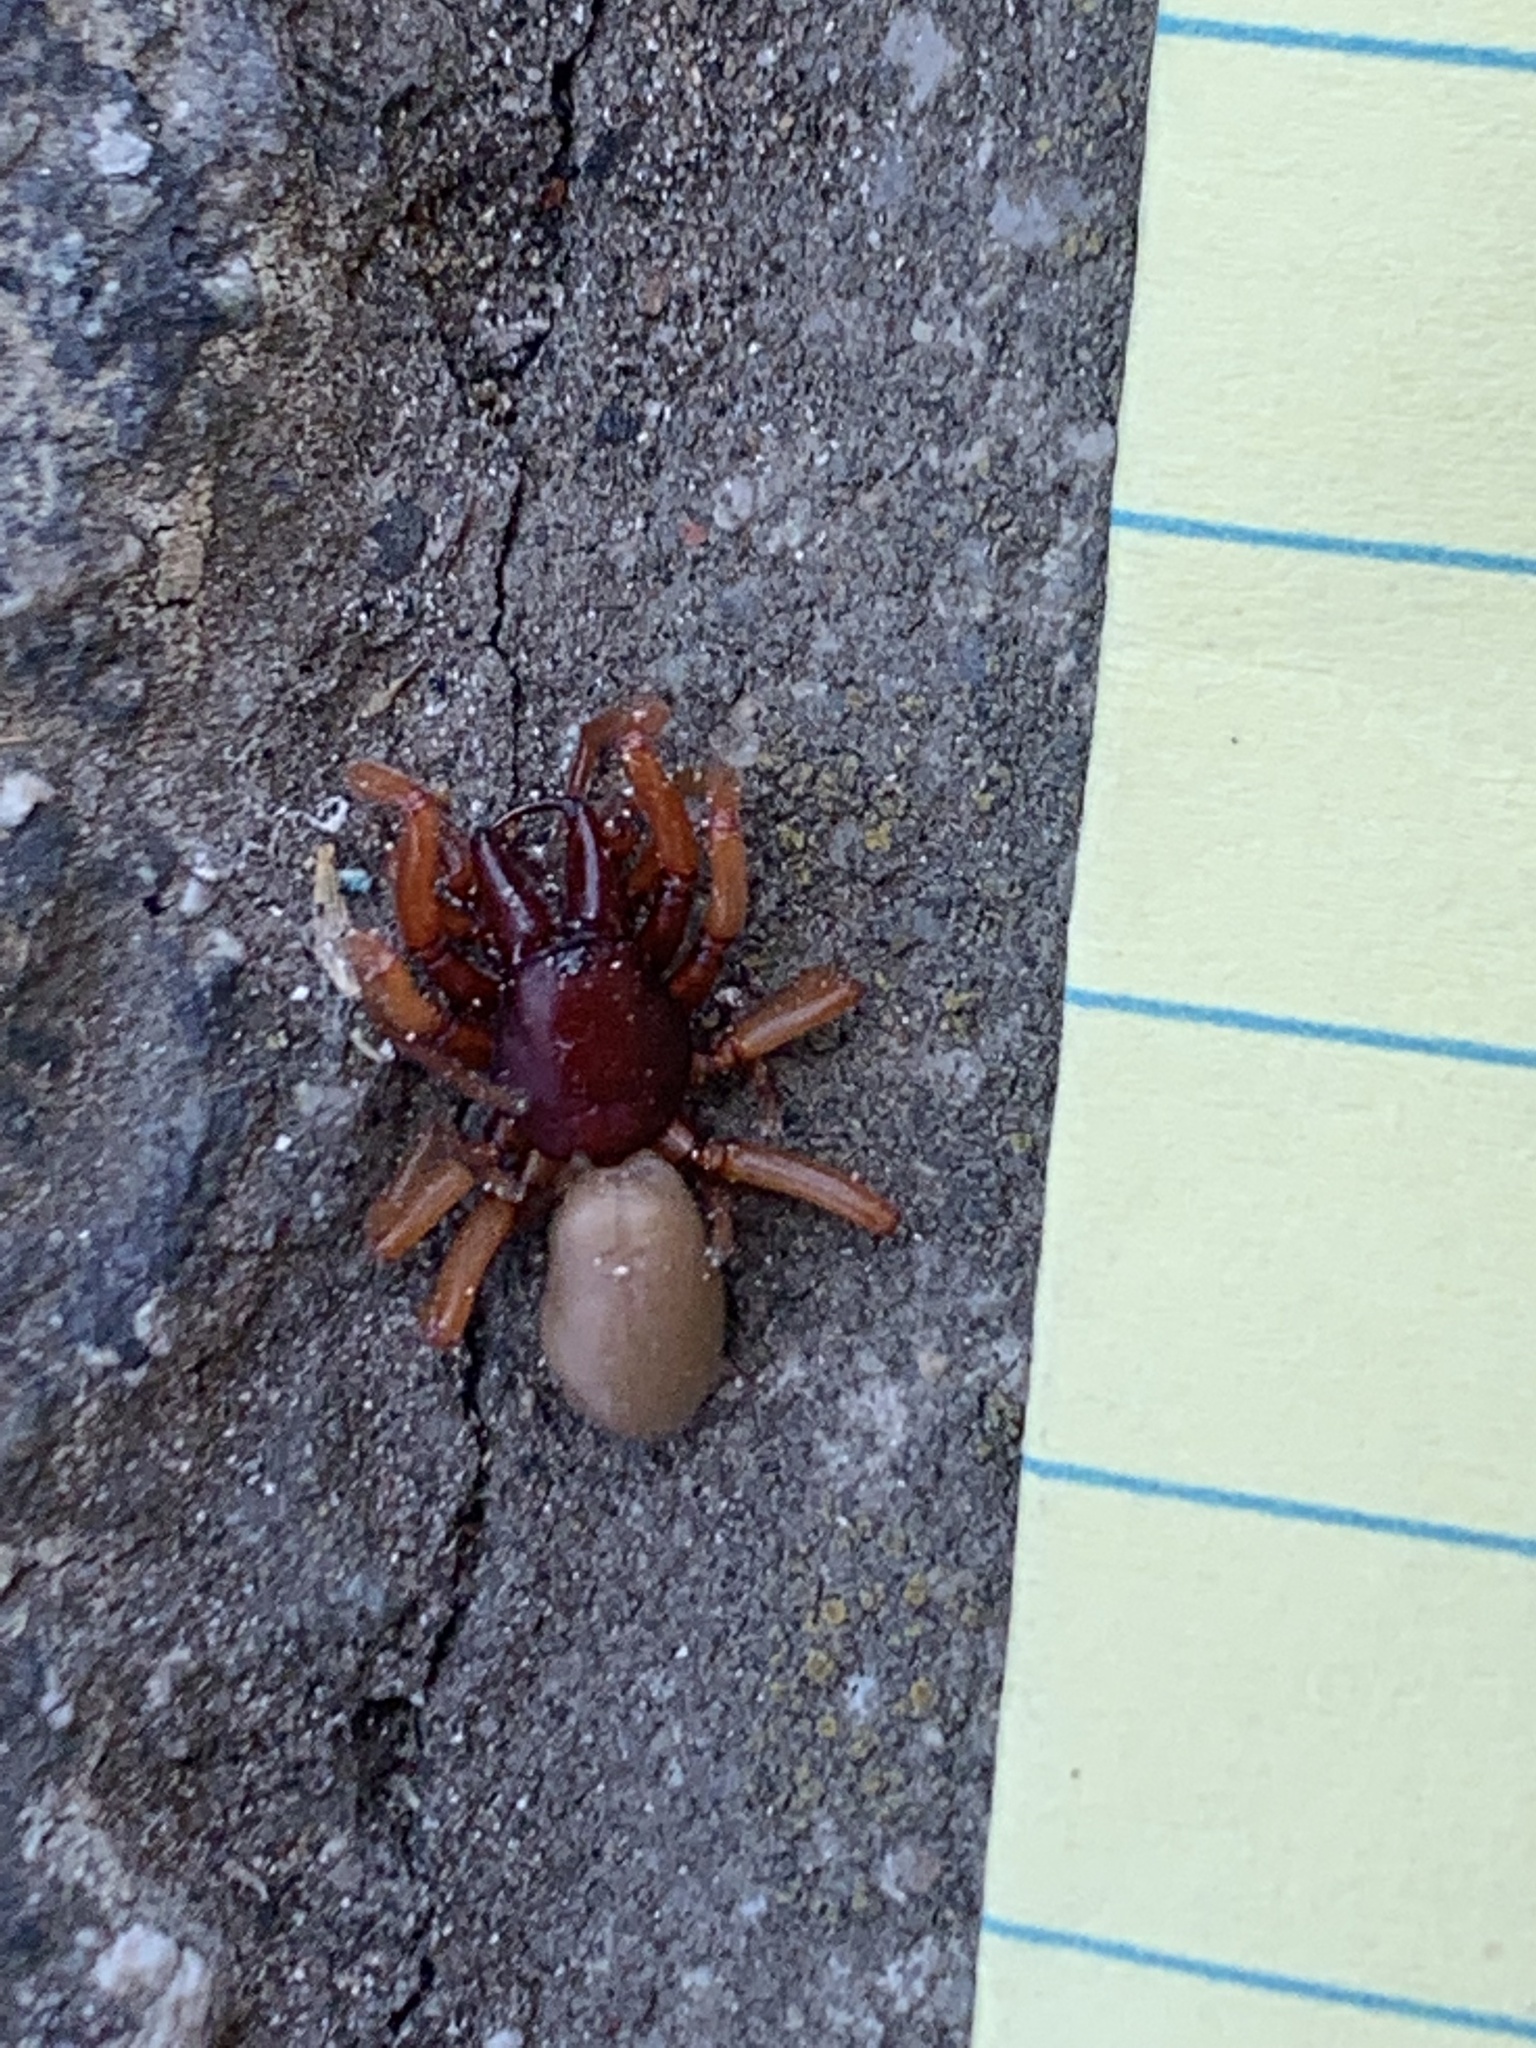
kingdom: Animalia
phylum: Arthropoda
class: Arachnida
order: Araneae
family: Dysderidae
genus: Dysdera
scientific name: Dysdera crocata
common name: Woodlouse spider
